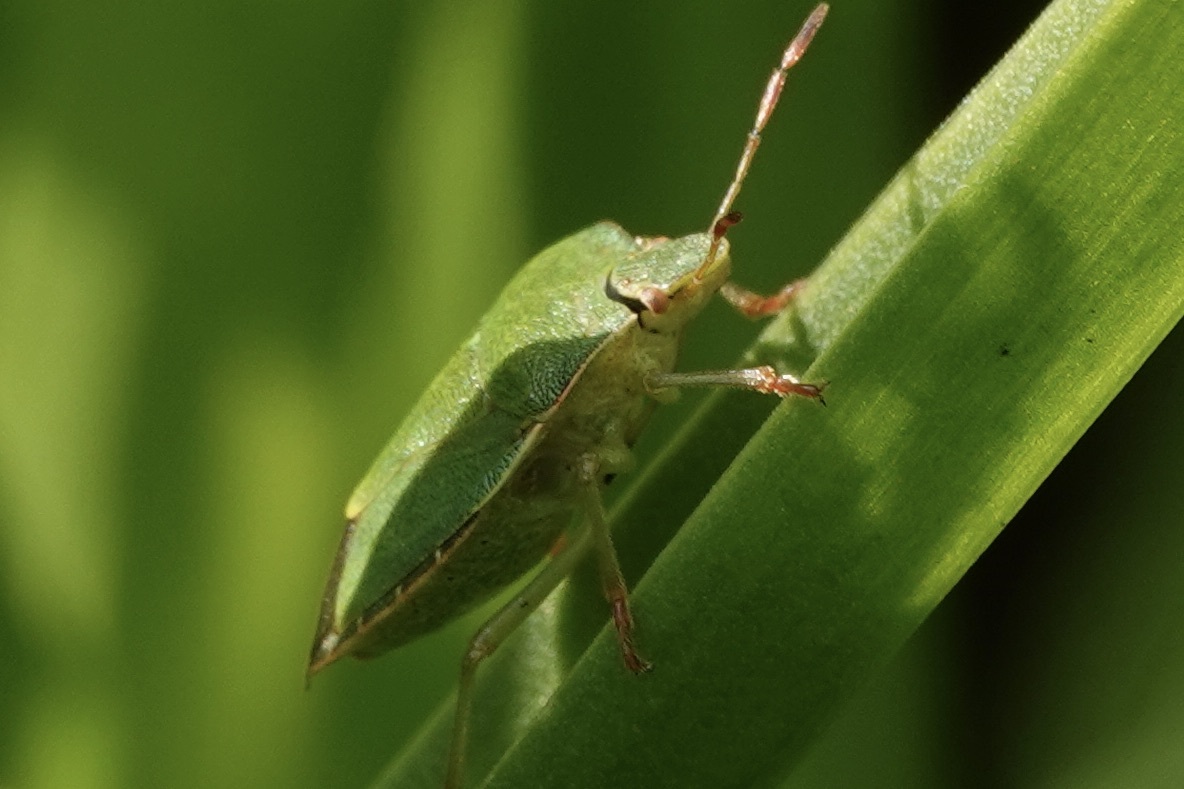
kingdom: Animalia
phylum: Arthropoda
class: Insecta
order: Hemiptera
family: Pentatomidae
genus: Palomena
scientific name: Palomena prasina
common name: Green shieldbug
